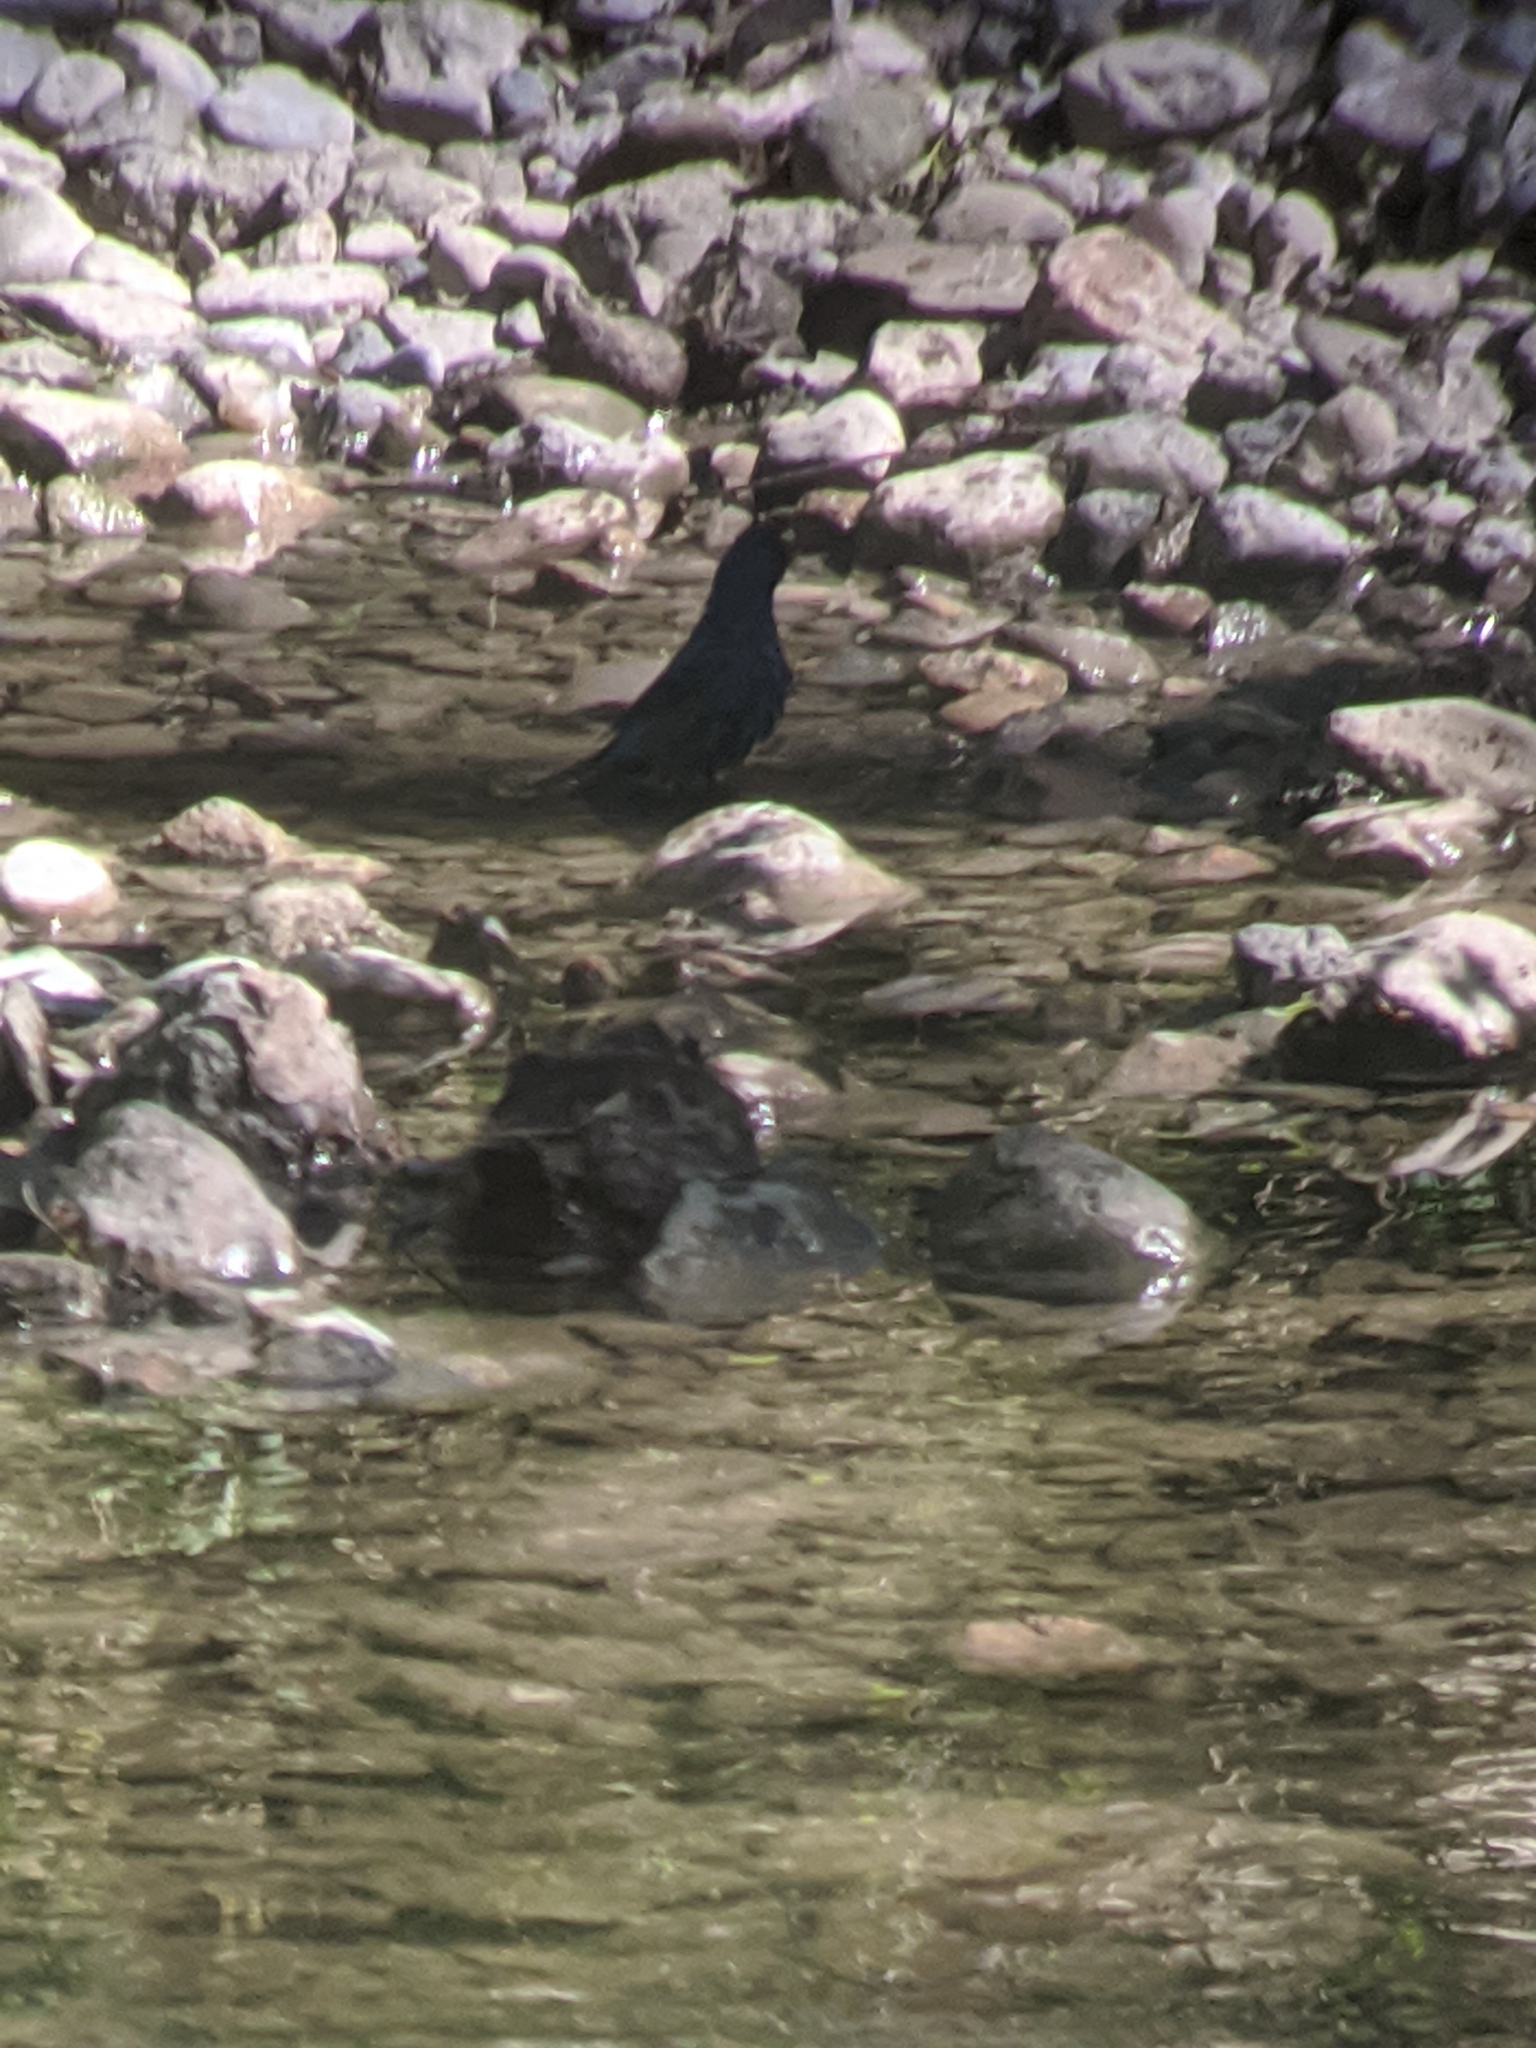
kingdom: Animalia
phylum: Chordata
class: Aves
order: Passeriformes
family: Cardinalidae
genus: Passerina
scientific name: Passerina cyanea
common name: Indigo bunting
